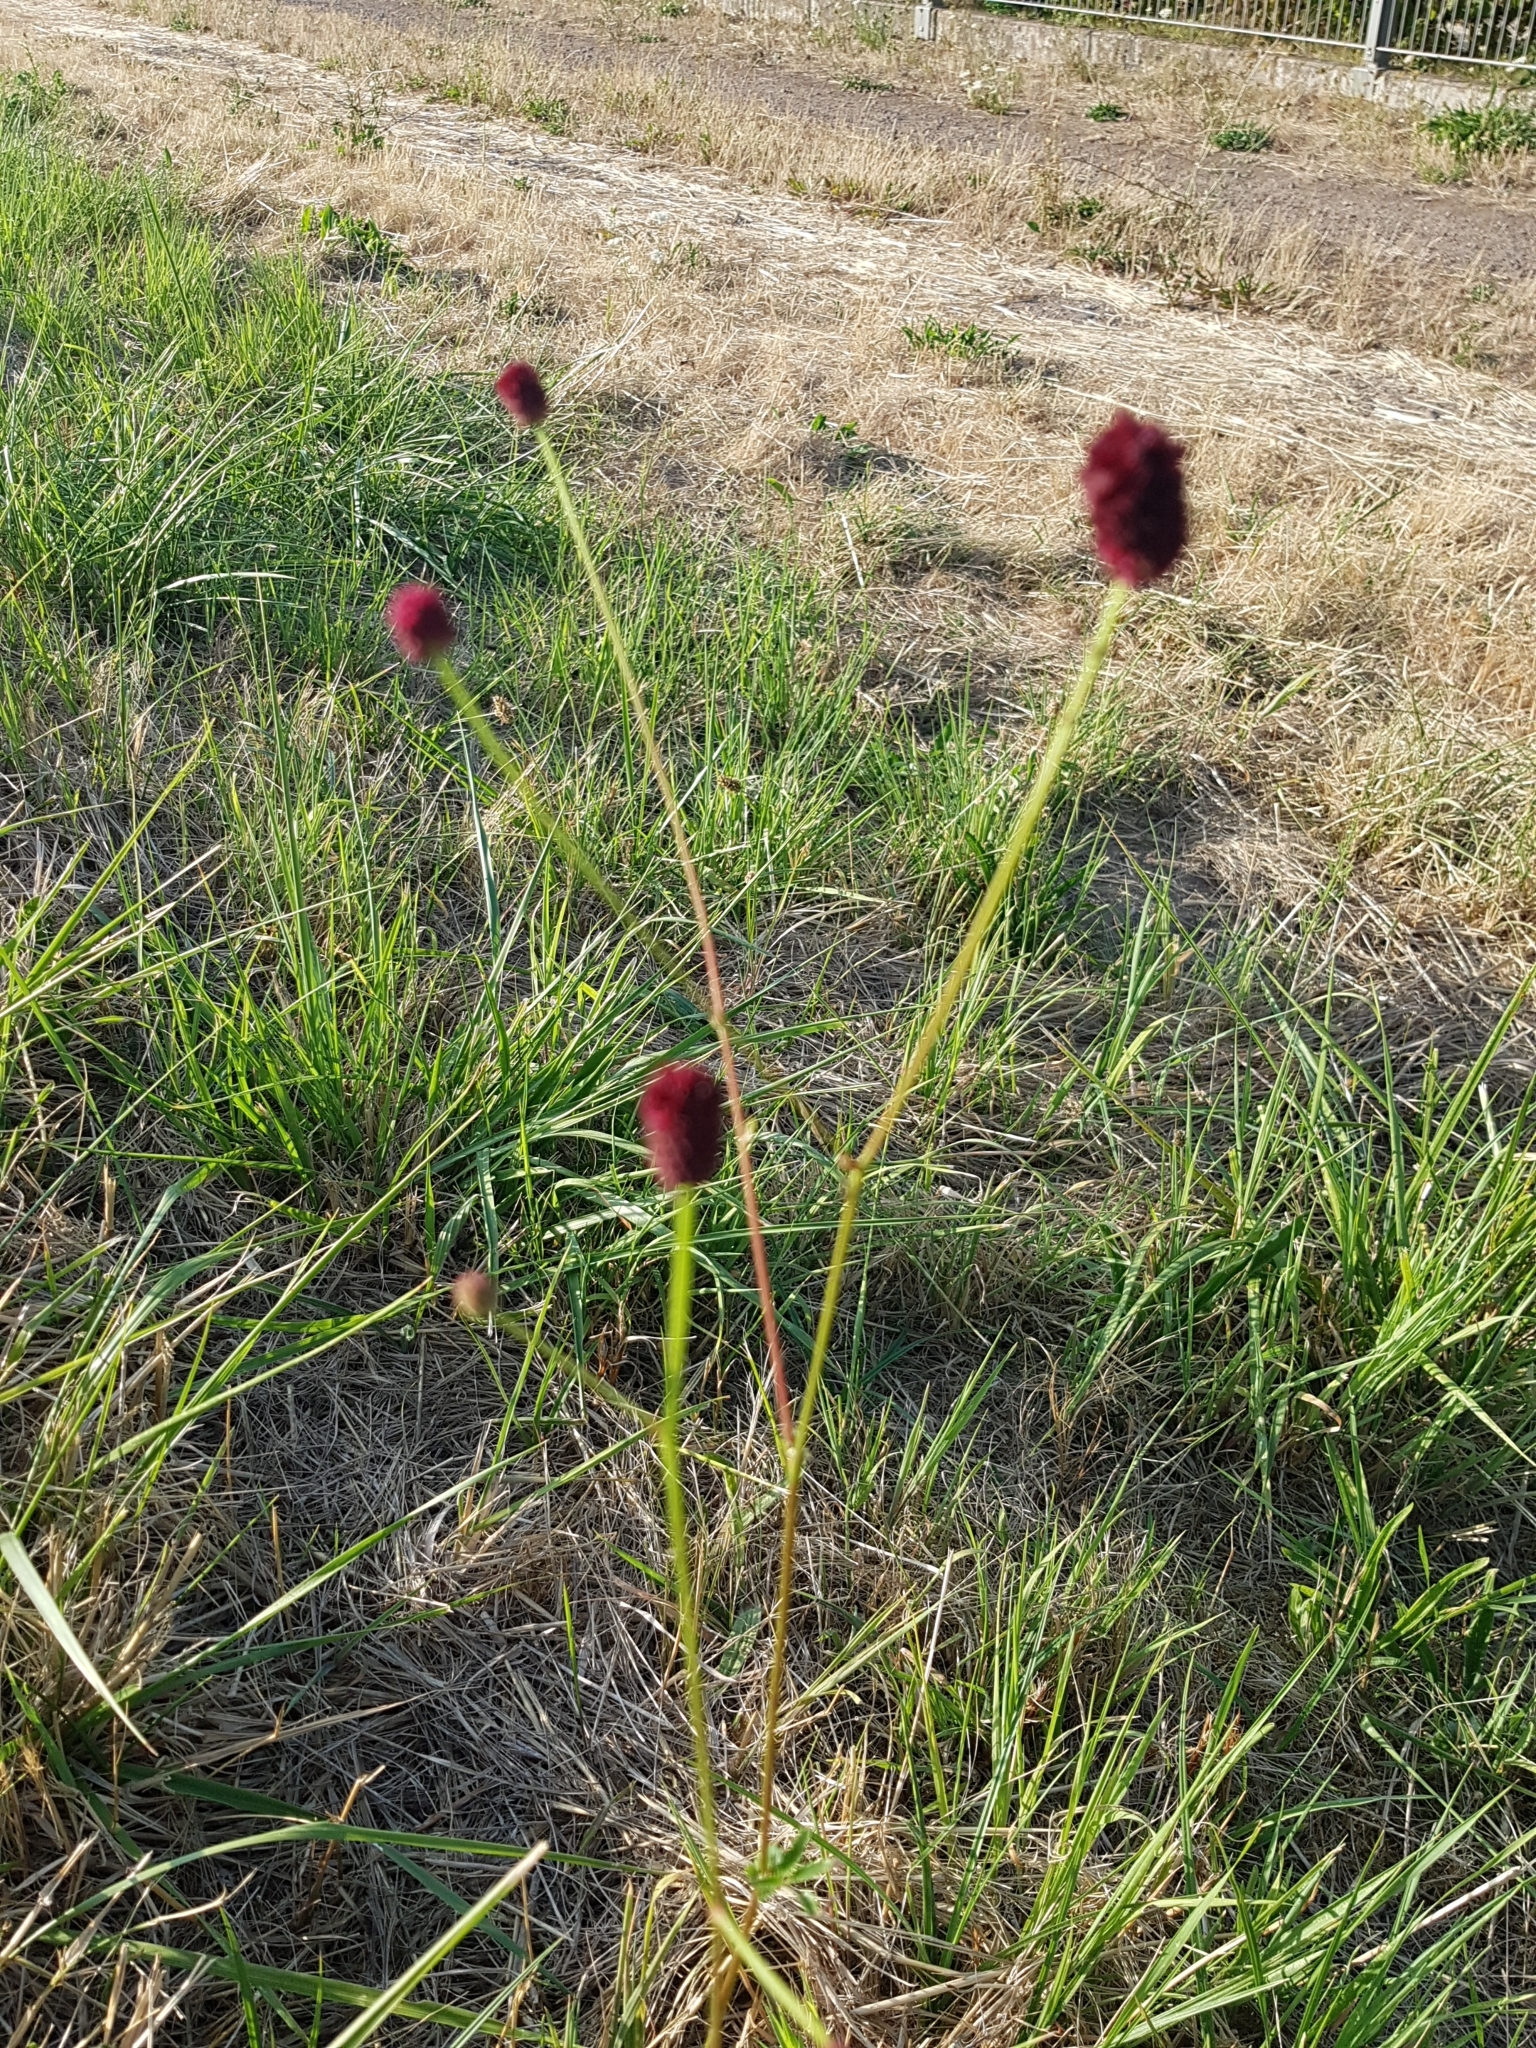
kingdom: Plantae
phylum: Tracheophyta
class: Magnoliopsida
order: Rosales
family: Rosaceae
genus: Sanguisorba
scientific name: Sanguisorba officinalis
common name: Great burnet
